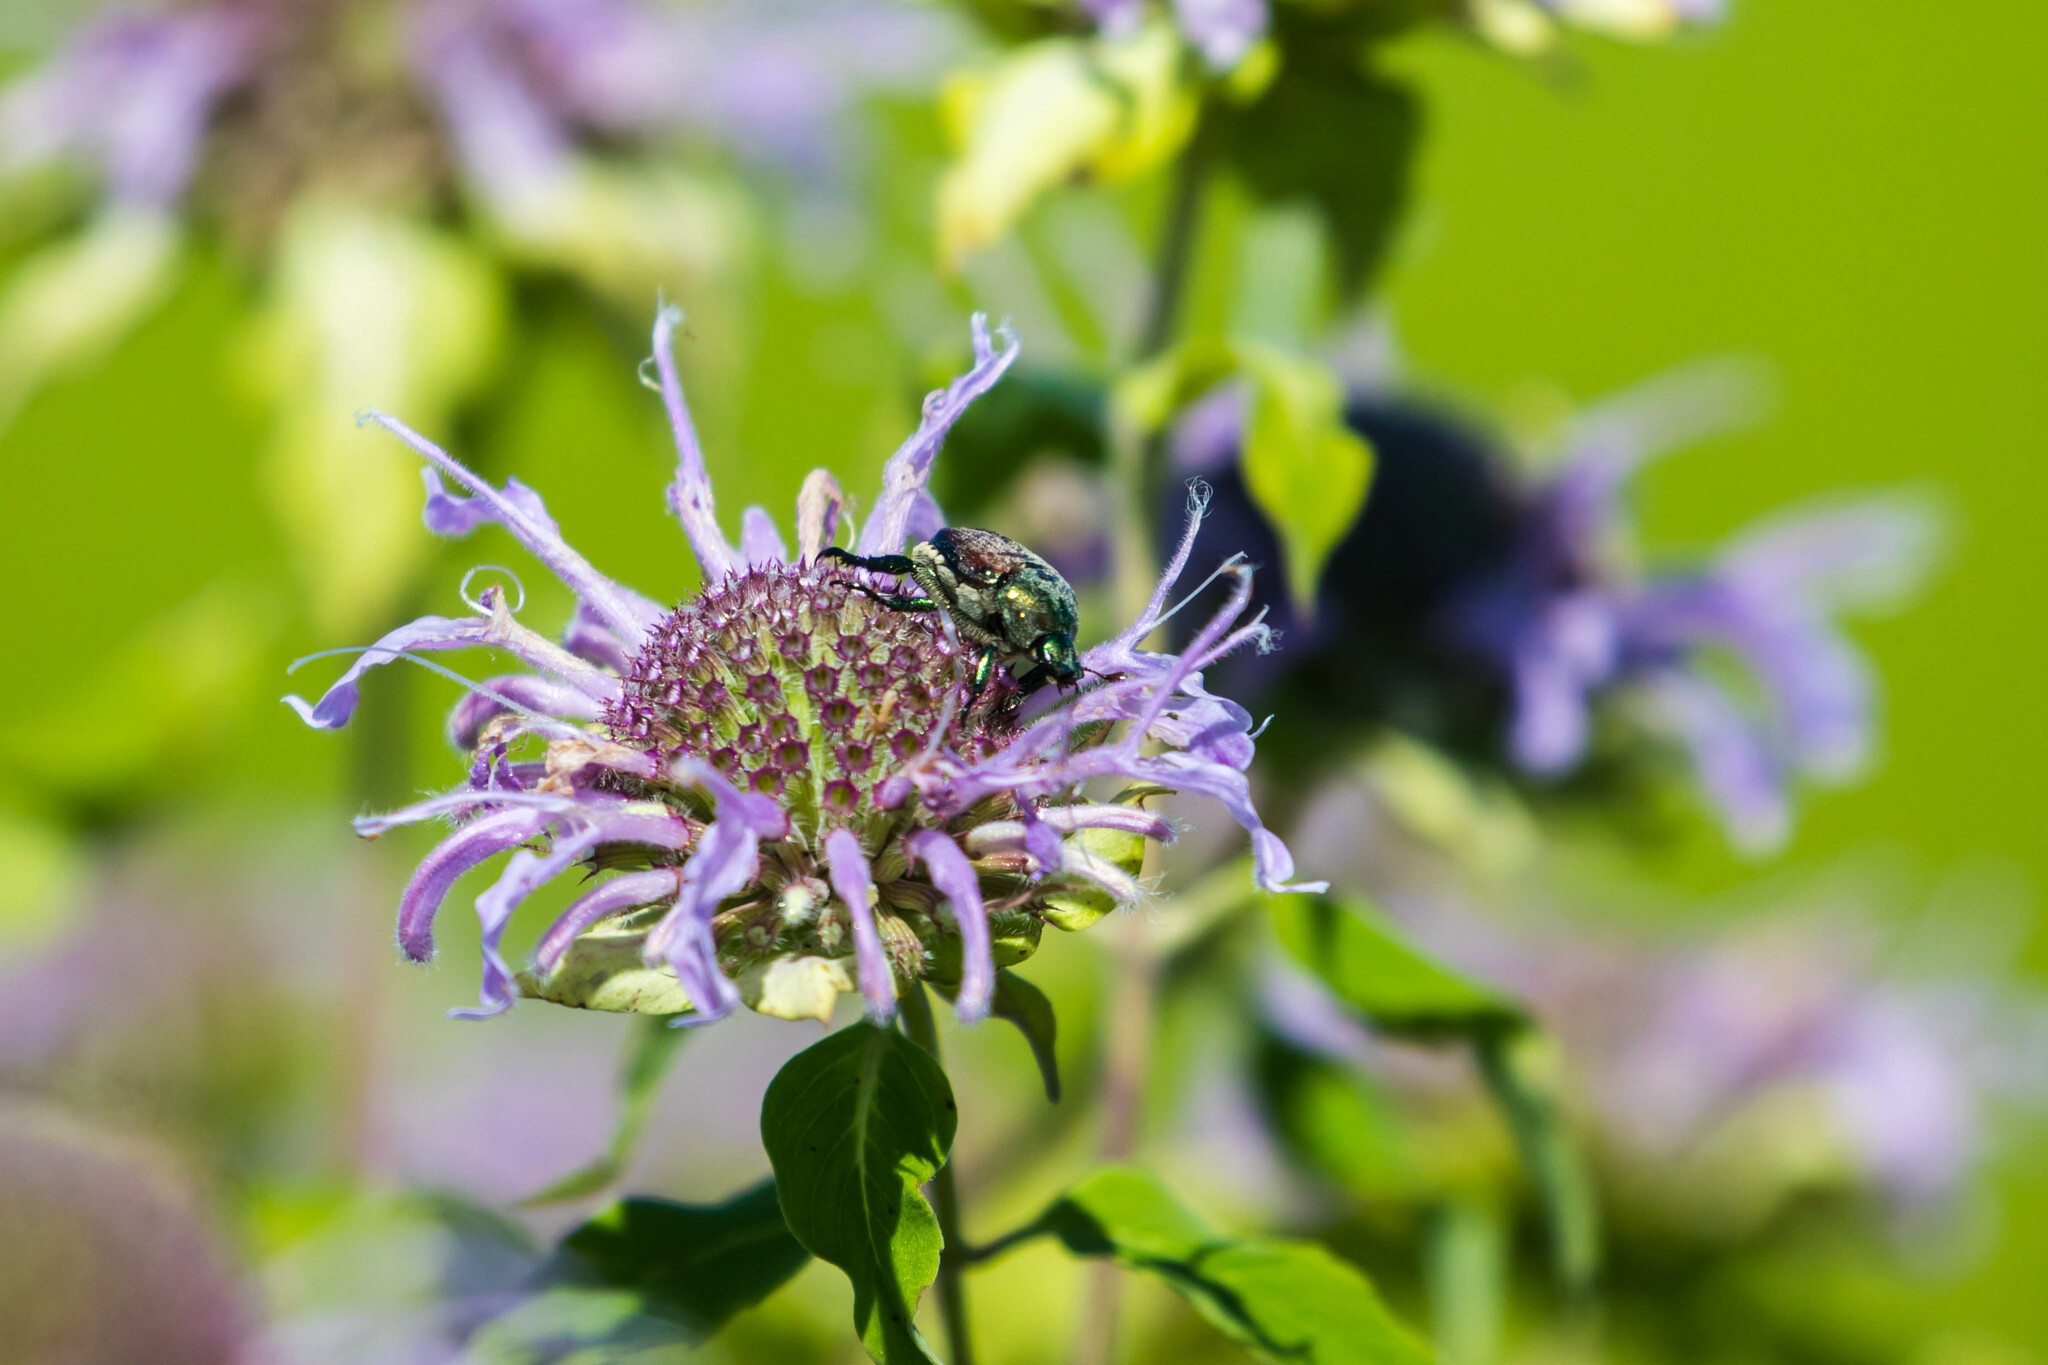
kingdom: Animalia
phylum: Arthropoda
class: Insecta
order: Coleoptera
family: Scarabaeidae
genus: Popillia
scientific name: Popillia japonica
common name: Japanese beetle
